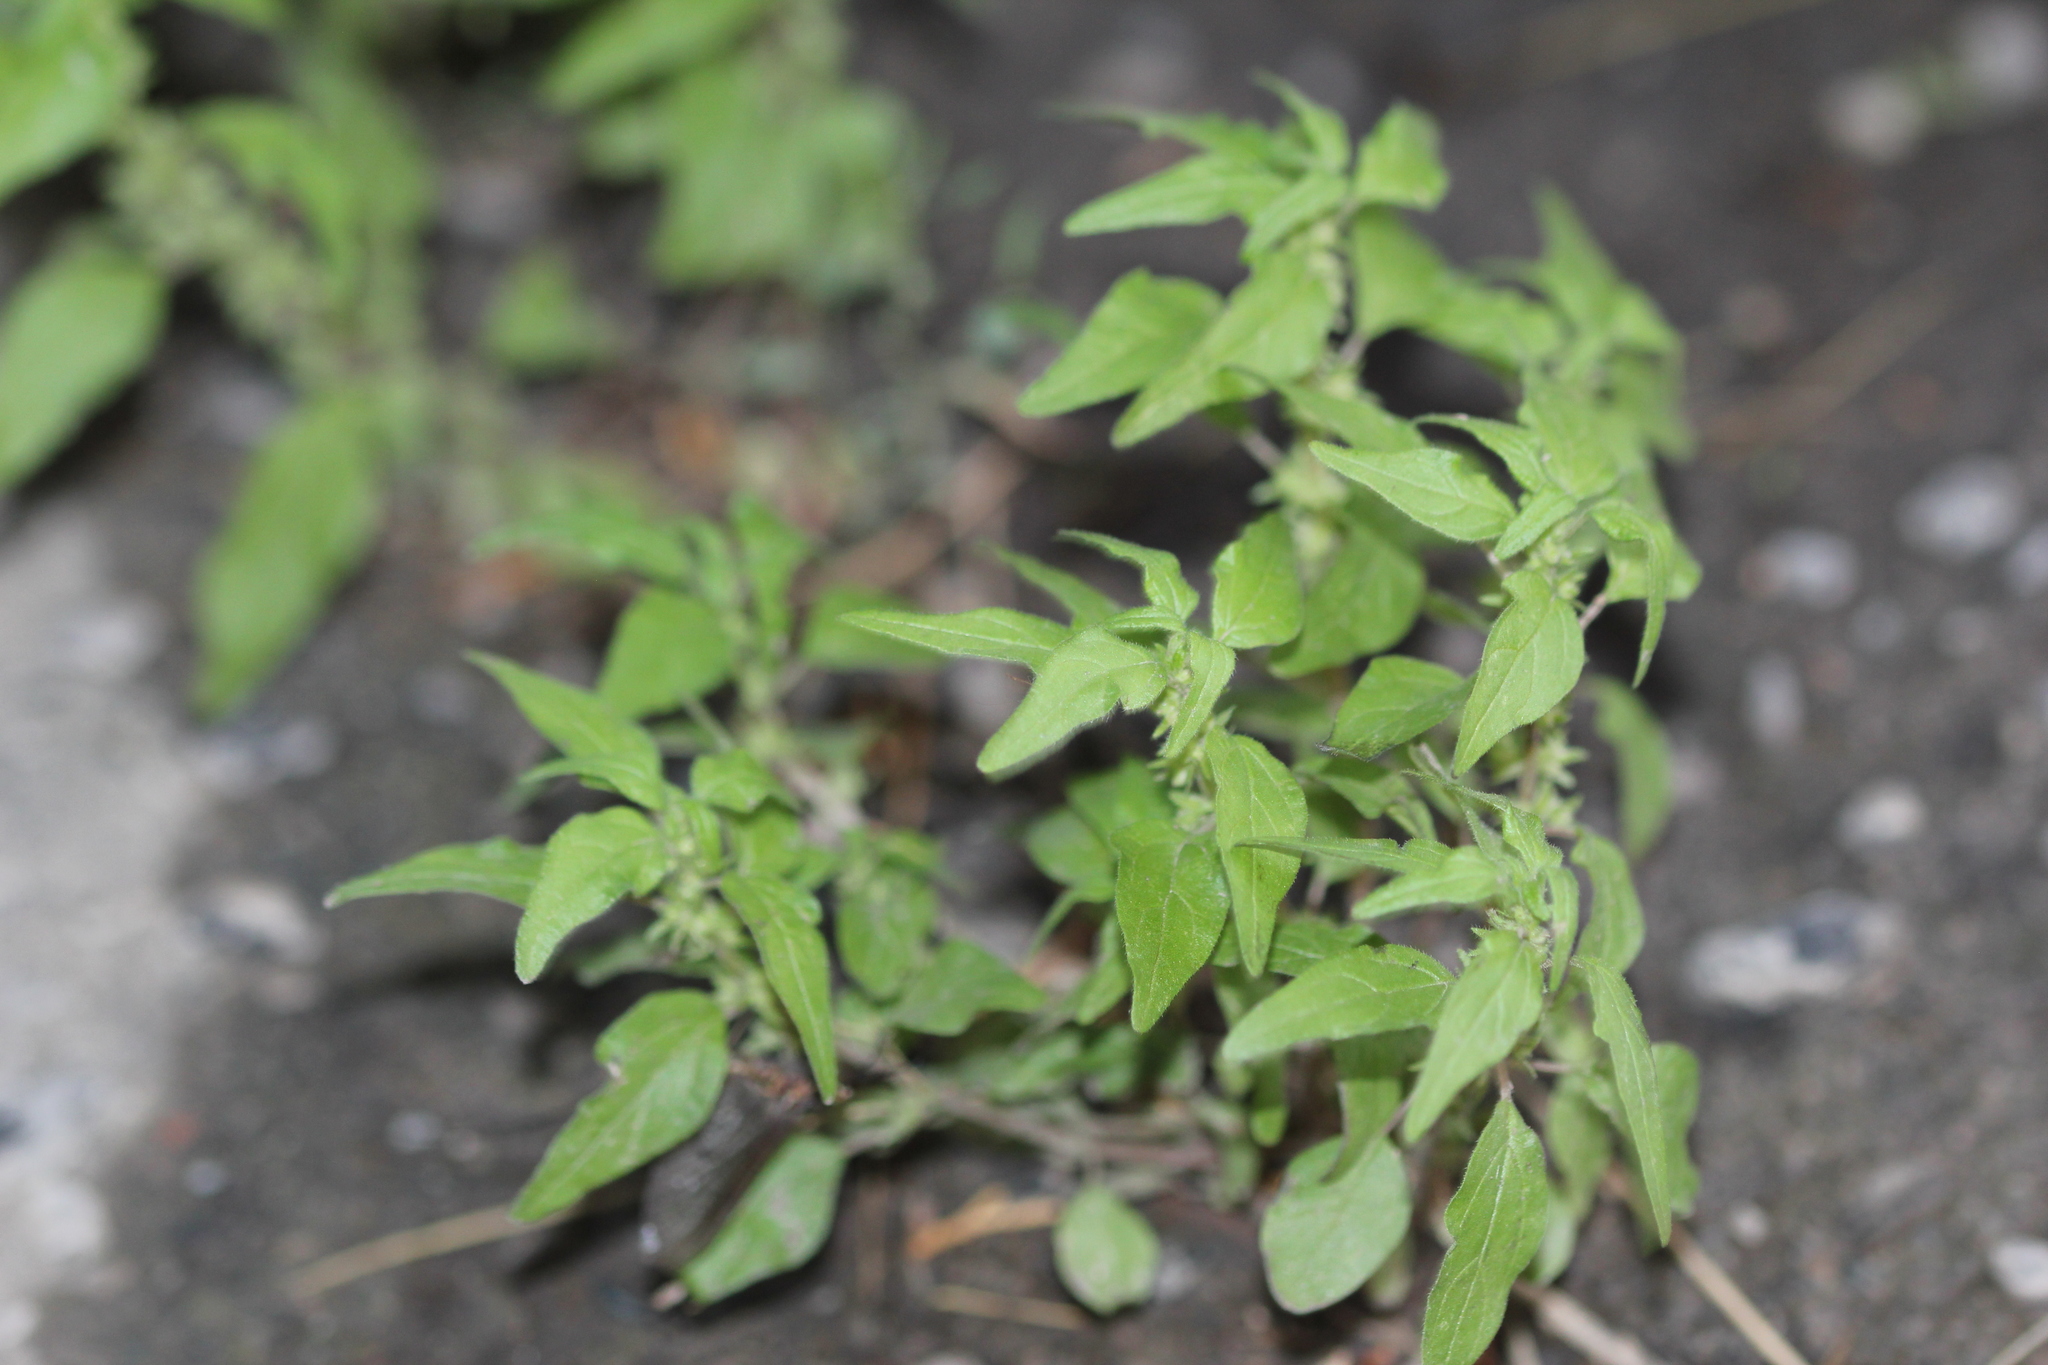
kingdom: Plantae
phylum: Tracheophyta
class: Magnoliopsida
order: Rosales
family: Urticaceae
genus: Parietaria
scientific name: Parietaria pensylvanica
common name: Pennsylvania pellitory
